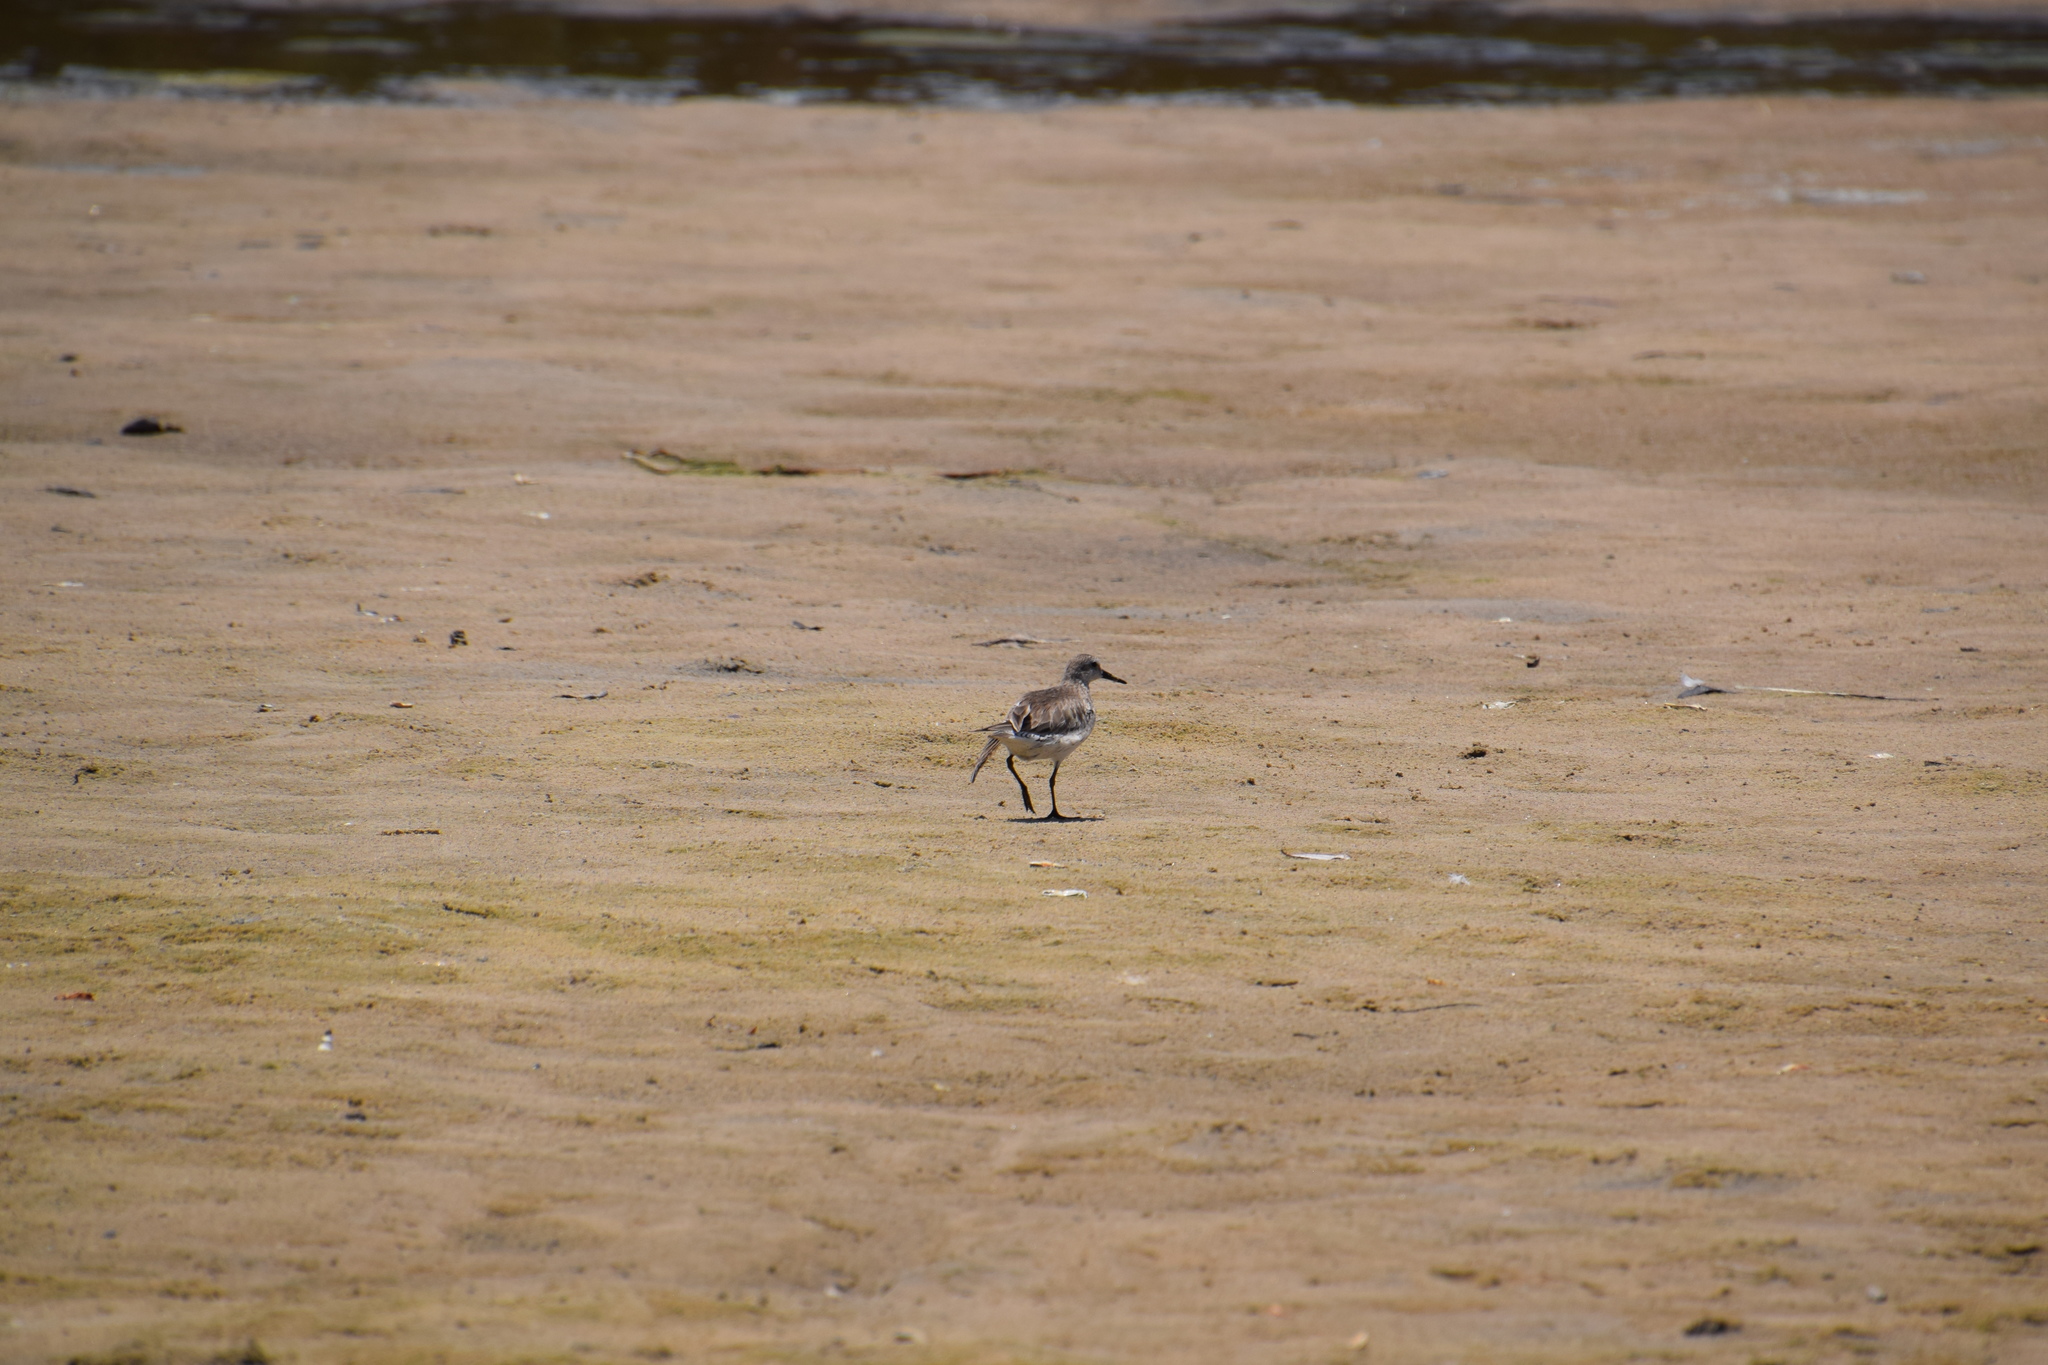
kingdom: Animalia
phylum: Chordata
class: Aves
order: Charadriiformes
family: Scolopacidae
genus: Calidris
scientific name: Calidris canutus
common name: Red knot
